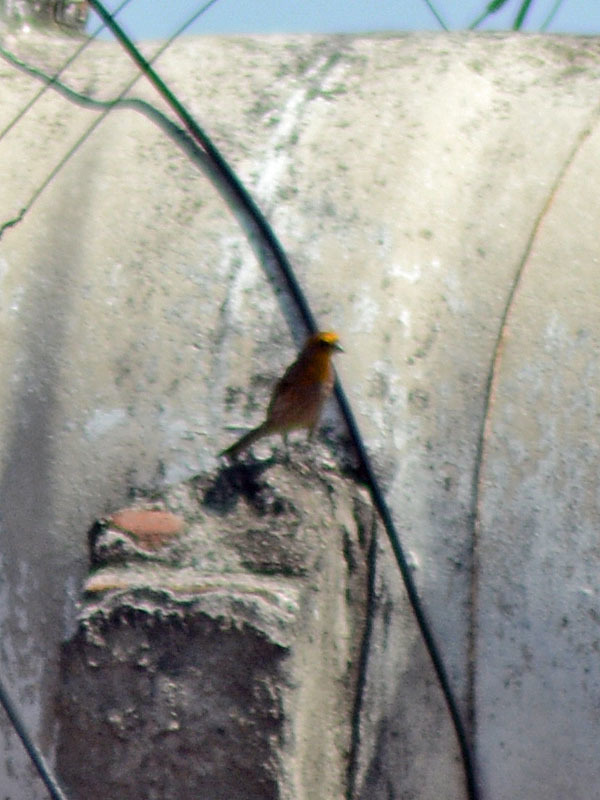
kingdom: Animalia
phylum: Chordata
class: Aves
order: Passeriformes
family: Fringillidae
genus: Haemorhous
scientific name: Haemorhous mexicanus
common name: House finch
